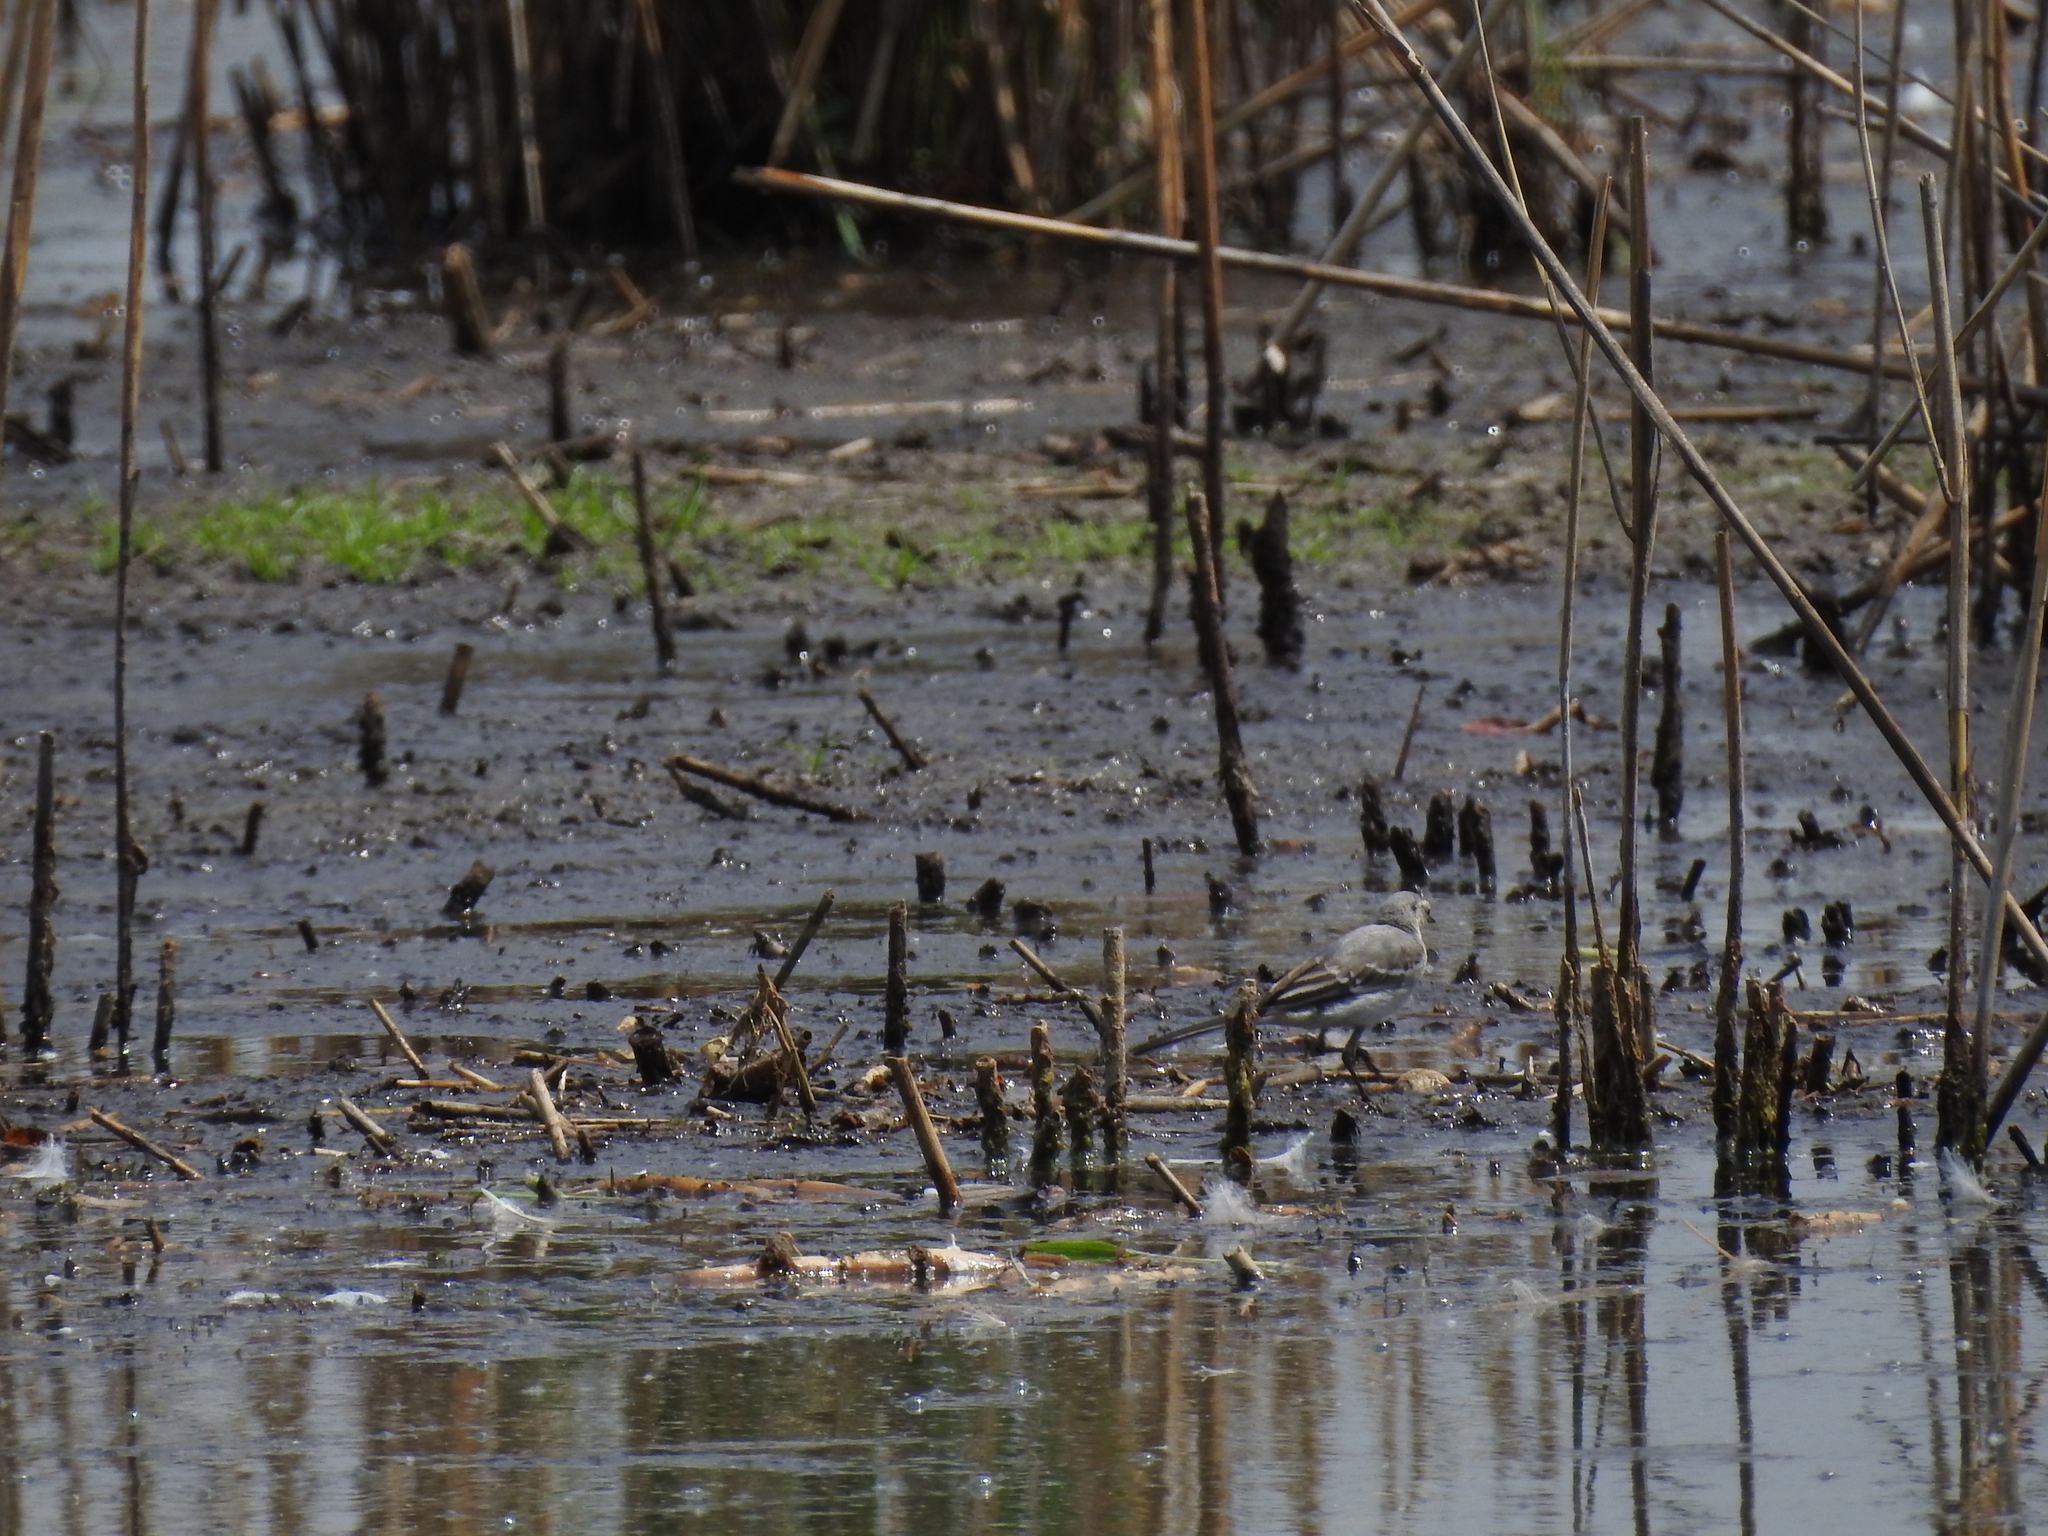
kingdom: Animalia
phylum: Chordata
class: Aves
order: Passeriformes
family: Motacillidae
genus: Motacilla
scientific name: Motacilla alba
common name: White wagtail
